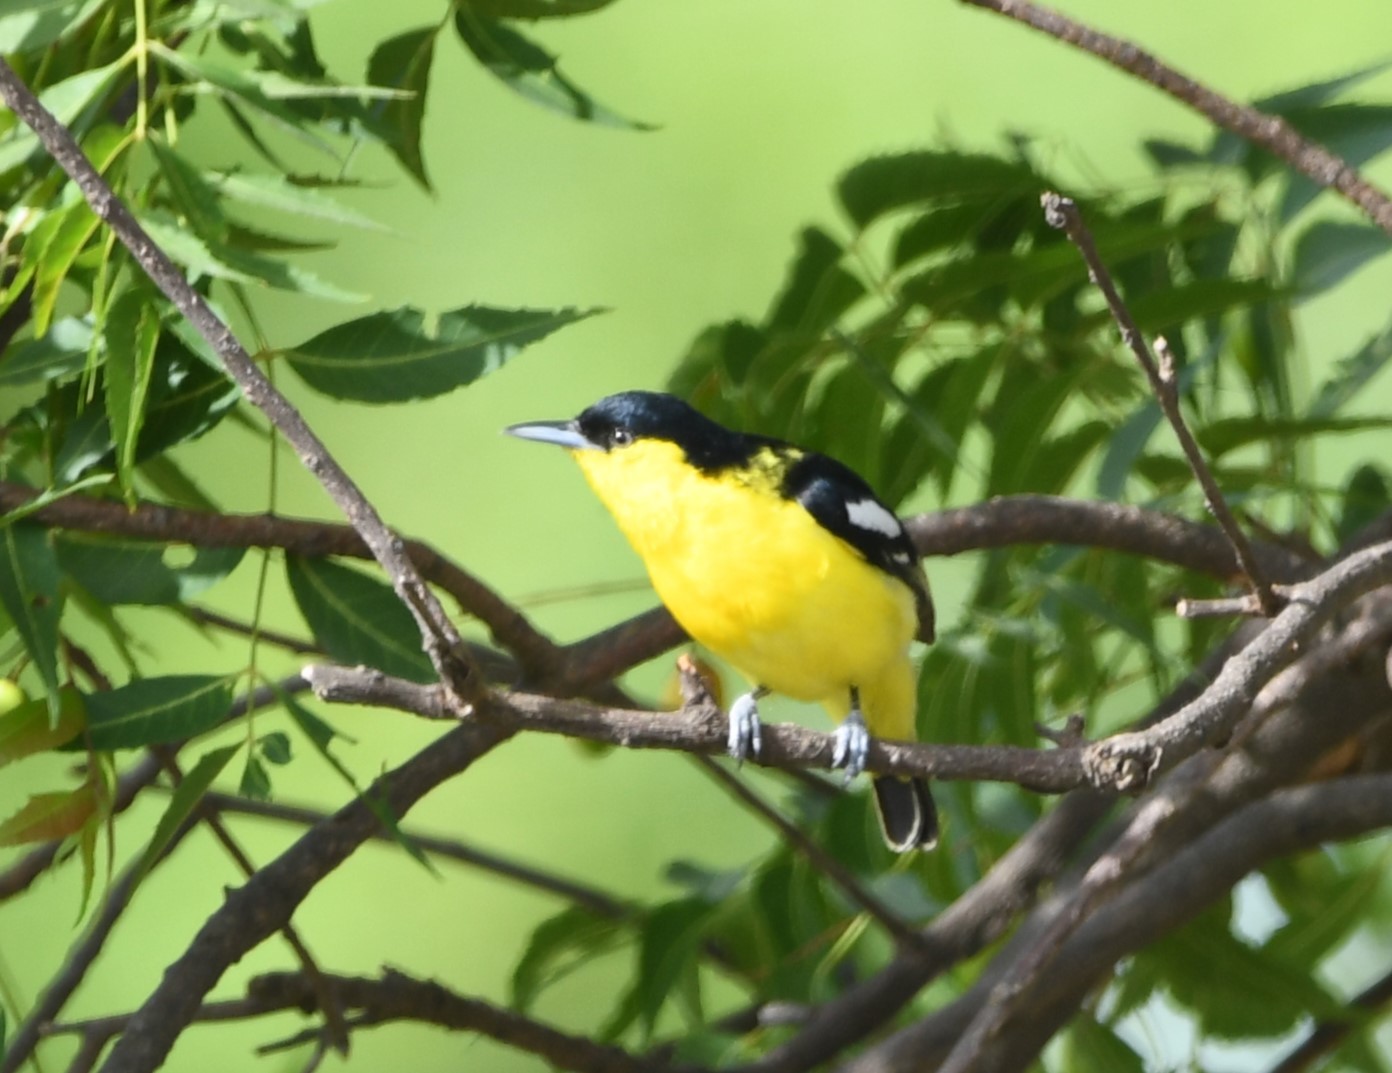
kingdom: Animalia
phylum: Chordata
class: Aves
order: Passeriformes
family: Aegithinidae
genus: Aegithina
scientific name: Aegithina tiphia
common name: Common iora
